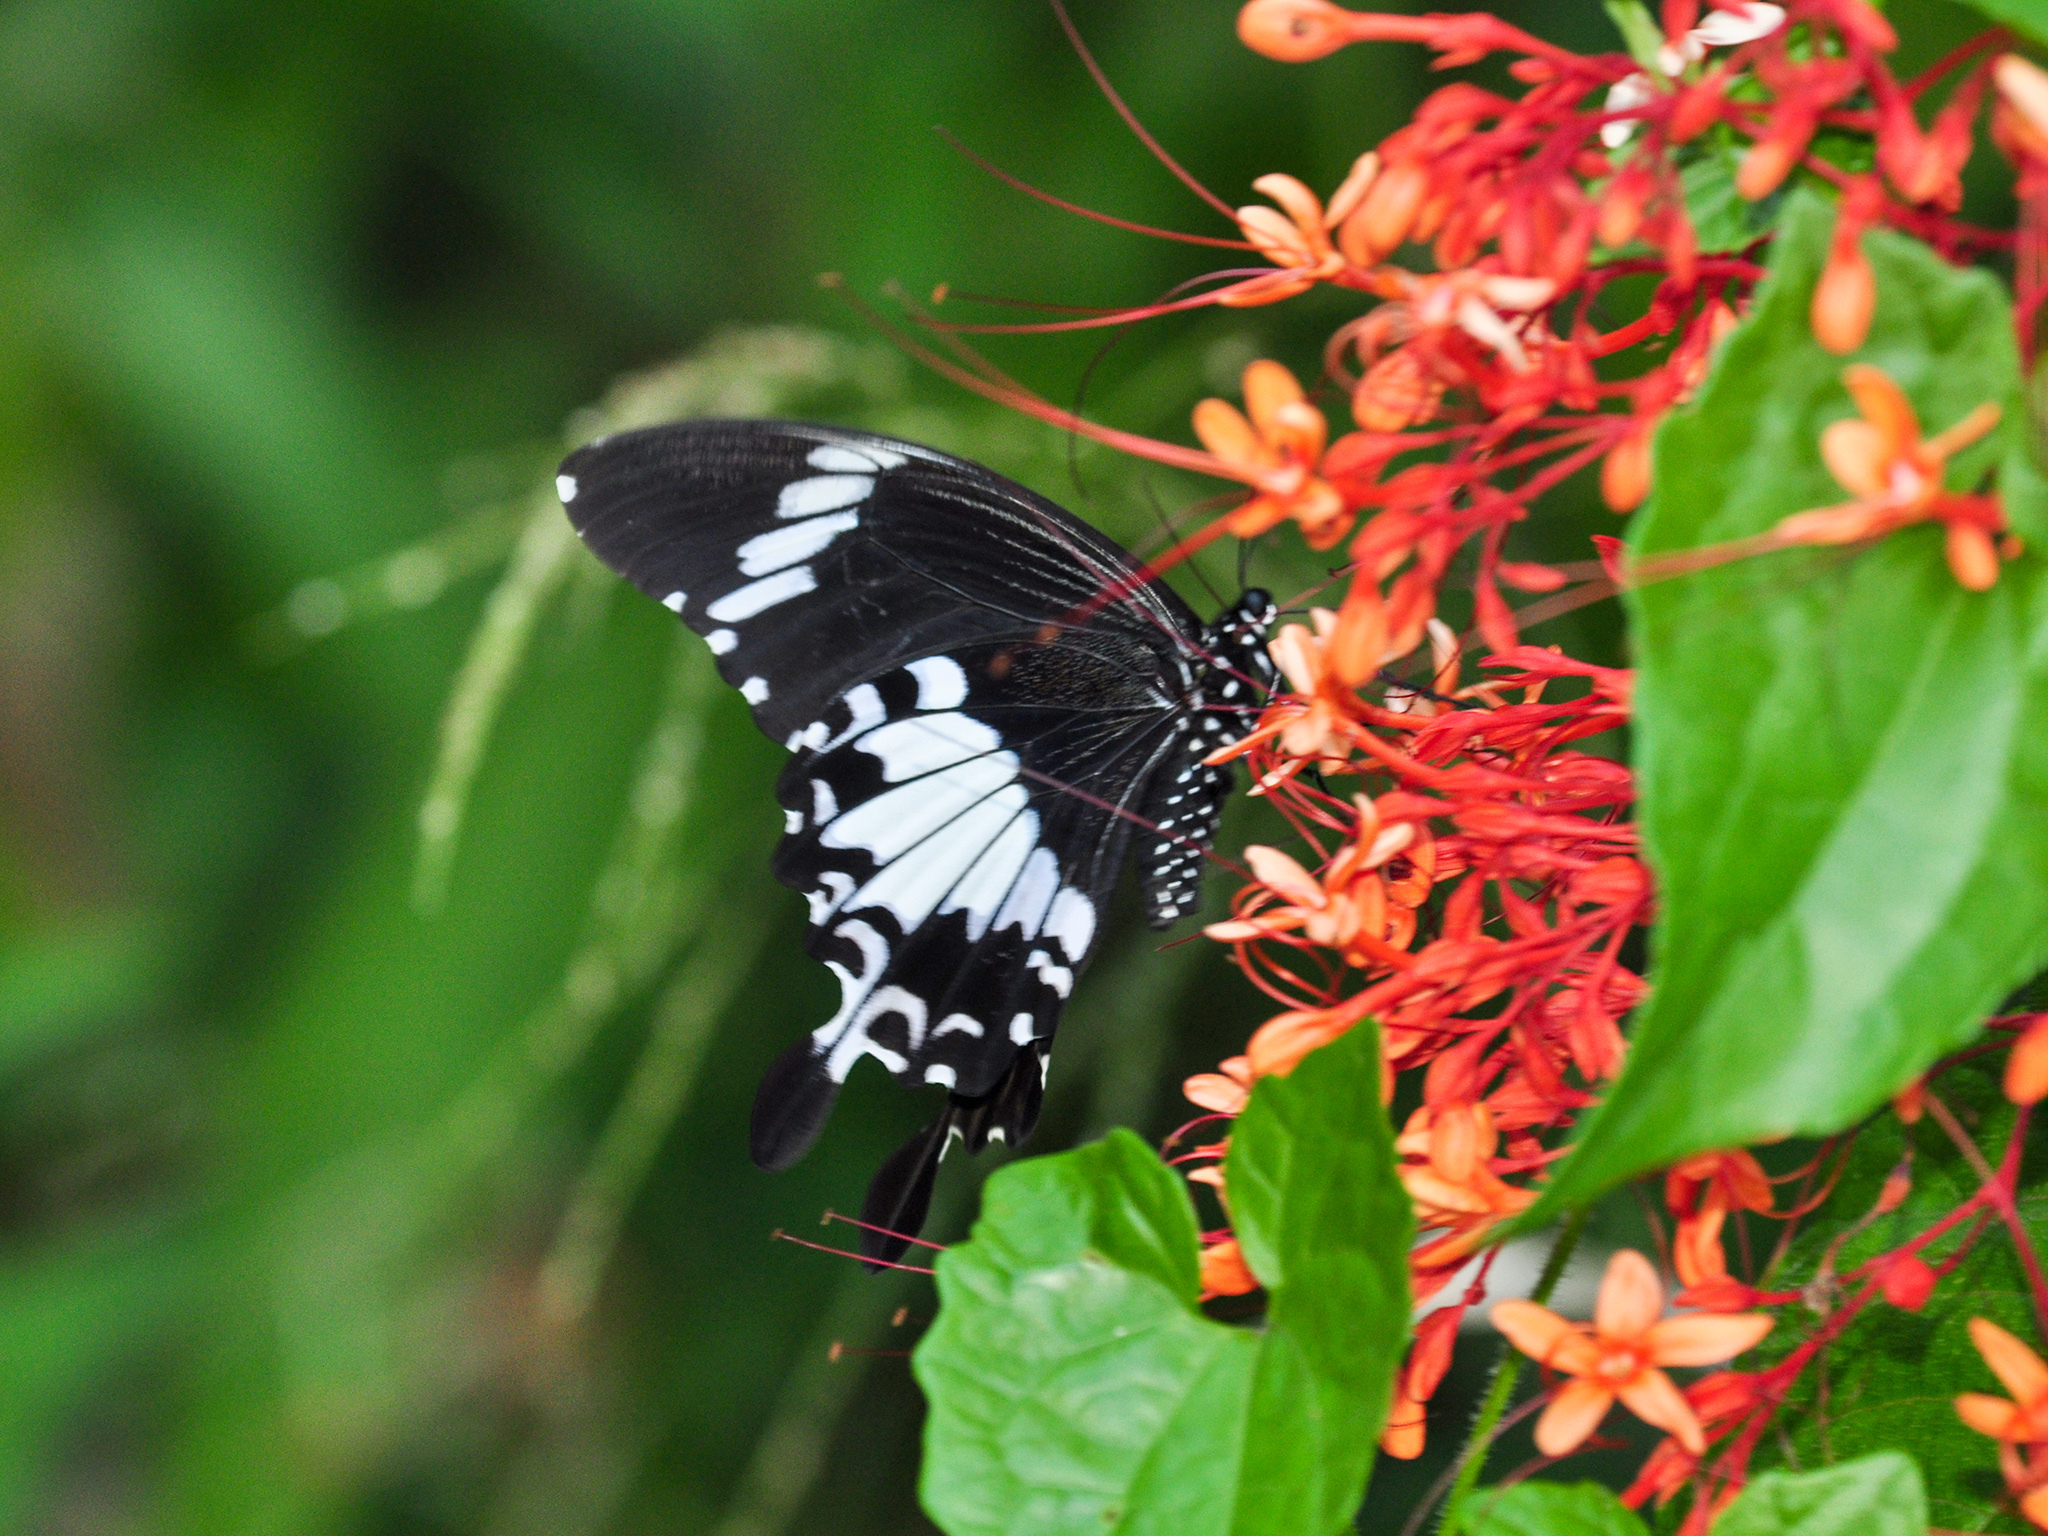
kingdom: Animalia
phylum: Arthropoda
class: Insecta
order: Lepidoptera
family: Papilionidae
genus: Papilio
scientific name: Papilio nephelus
